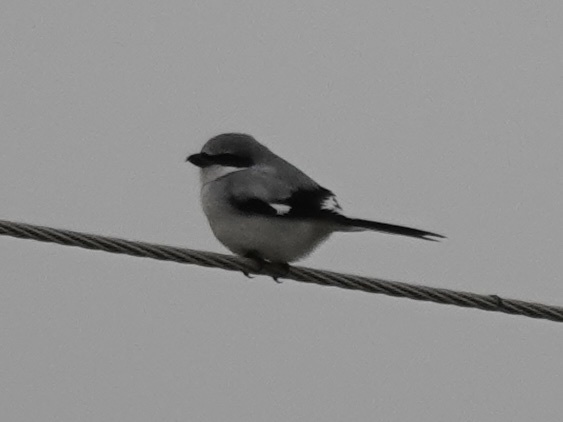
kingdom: Animalia
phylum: Chordata
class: Aves
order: Passeriformes
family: Laniidae
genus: Lanius
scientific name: Lanius ludovicianus
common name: Loggerhead shrike
